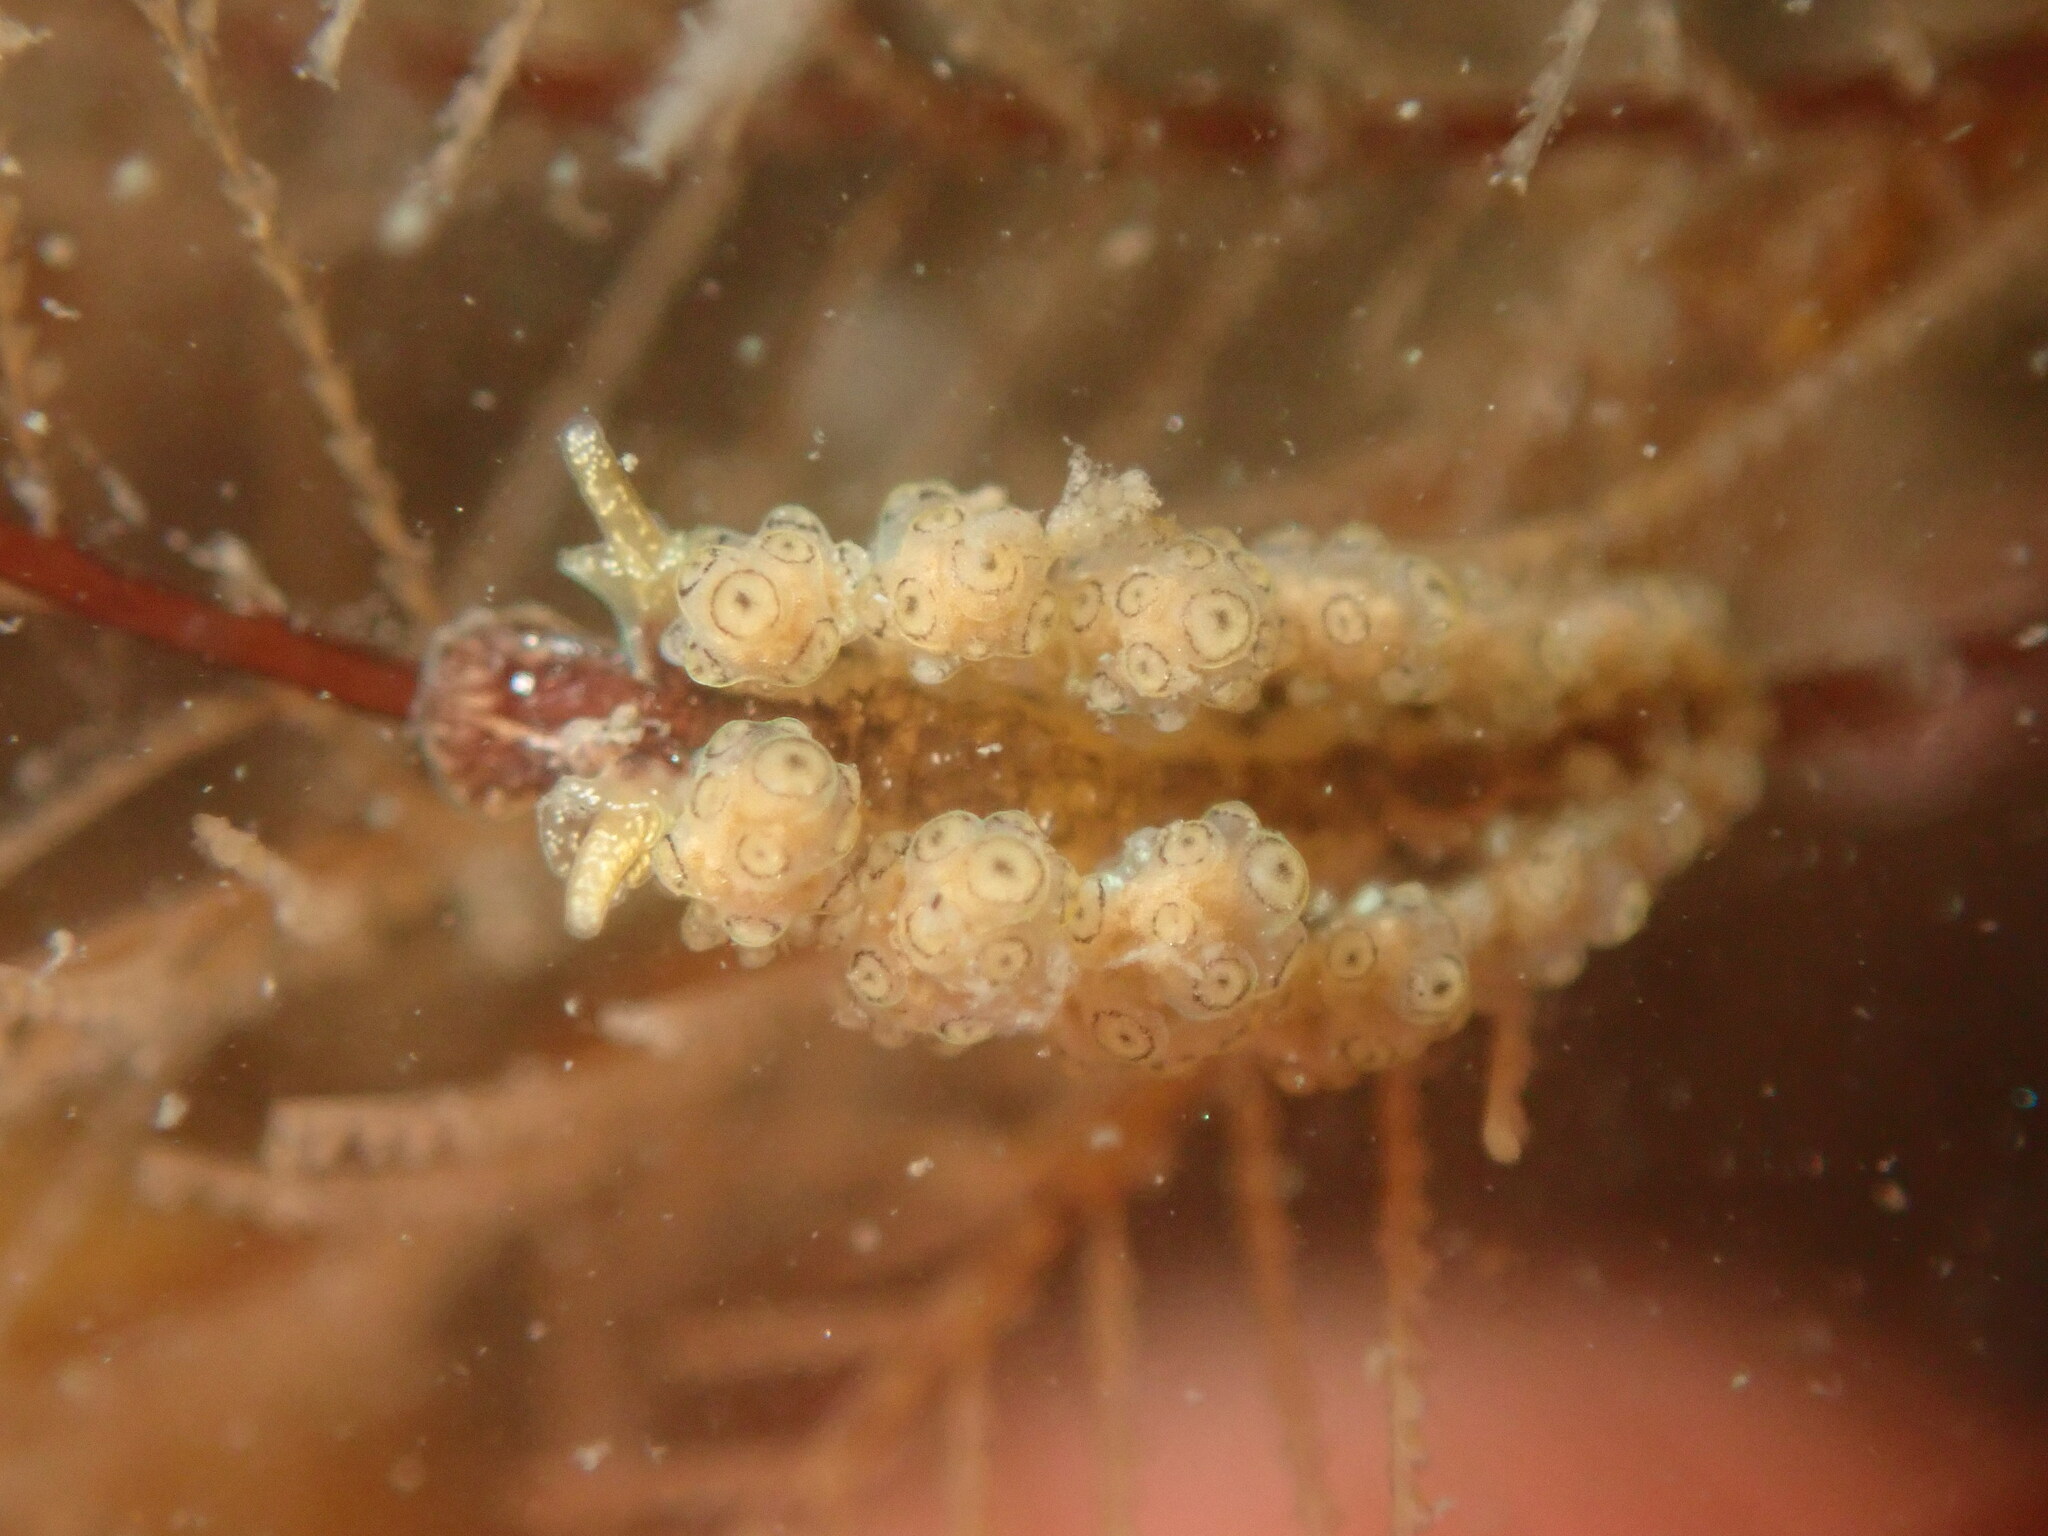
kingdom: Animalia
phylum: Mollusca
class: Gastropoda
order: Nudibranchia
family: Dotidae
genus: Doto
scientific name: Doto lancei
